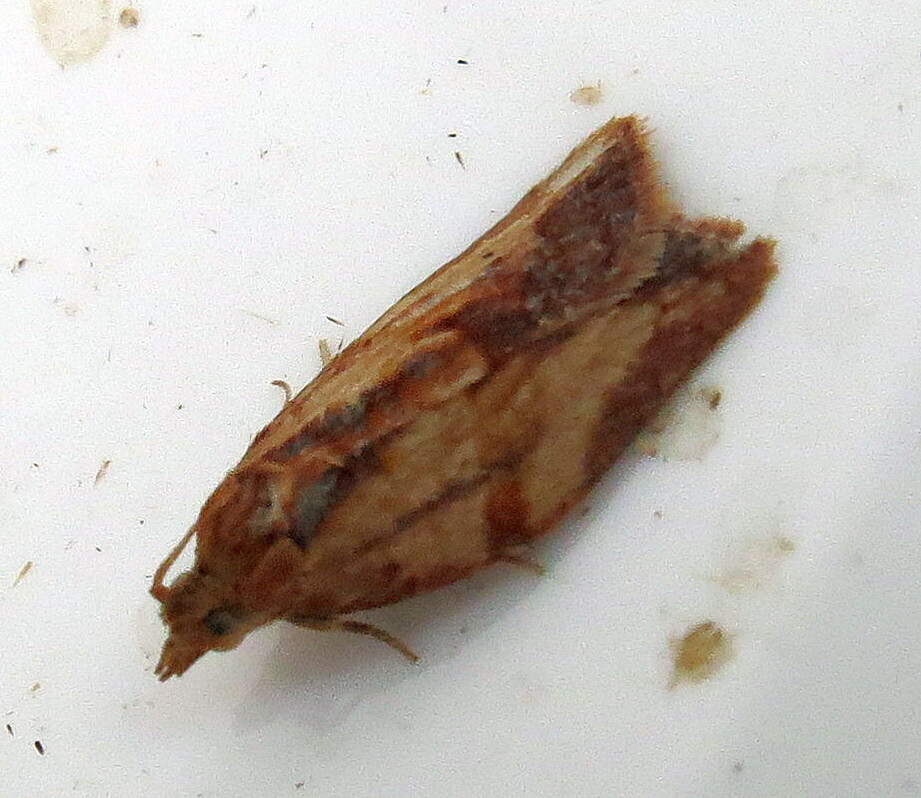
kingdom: Animalia
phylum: Arthropoda
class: Insecta
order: Lepidoptera
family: Tortricidae
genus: Epiphyas
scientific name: Epiphyas postvittana
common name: Light brown apple moth
